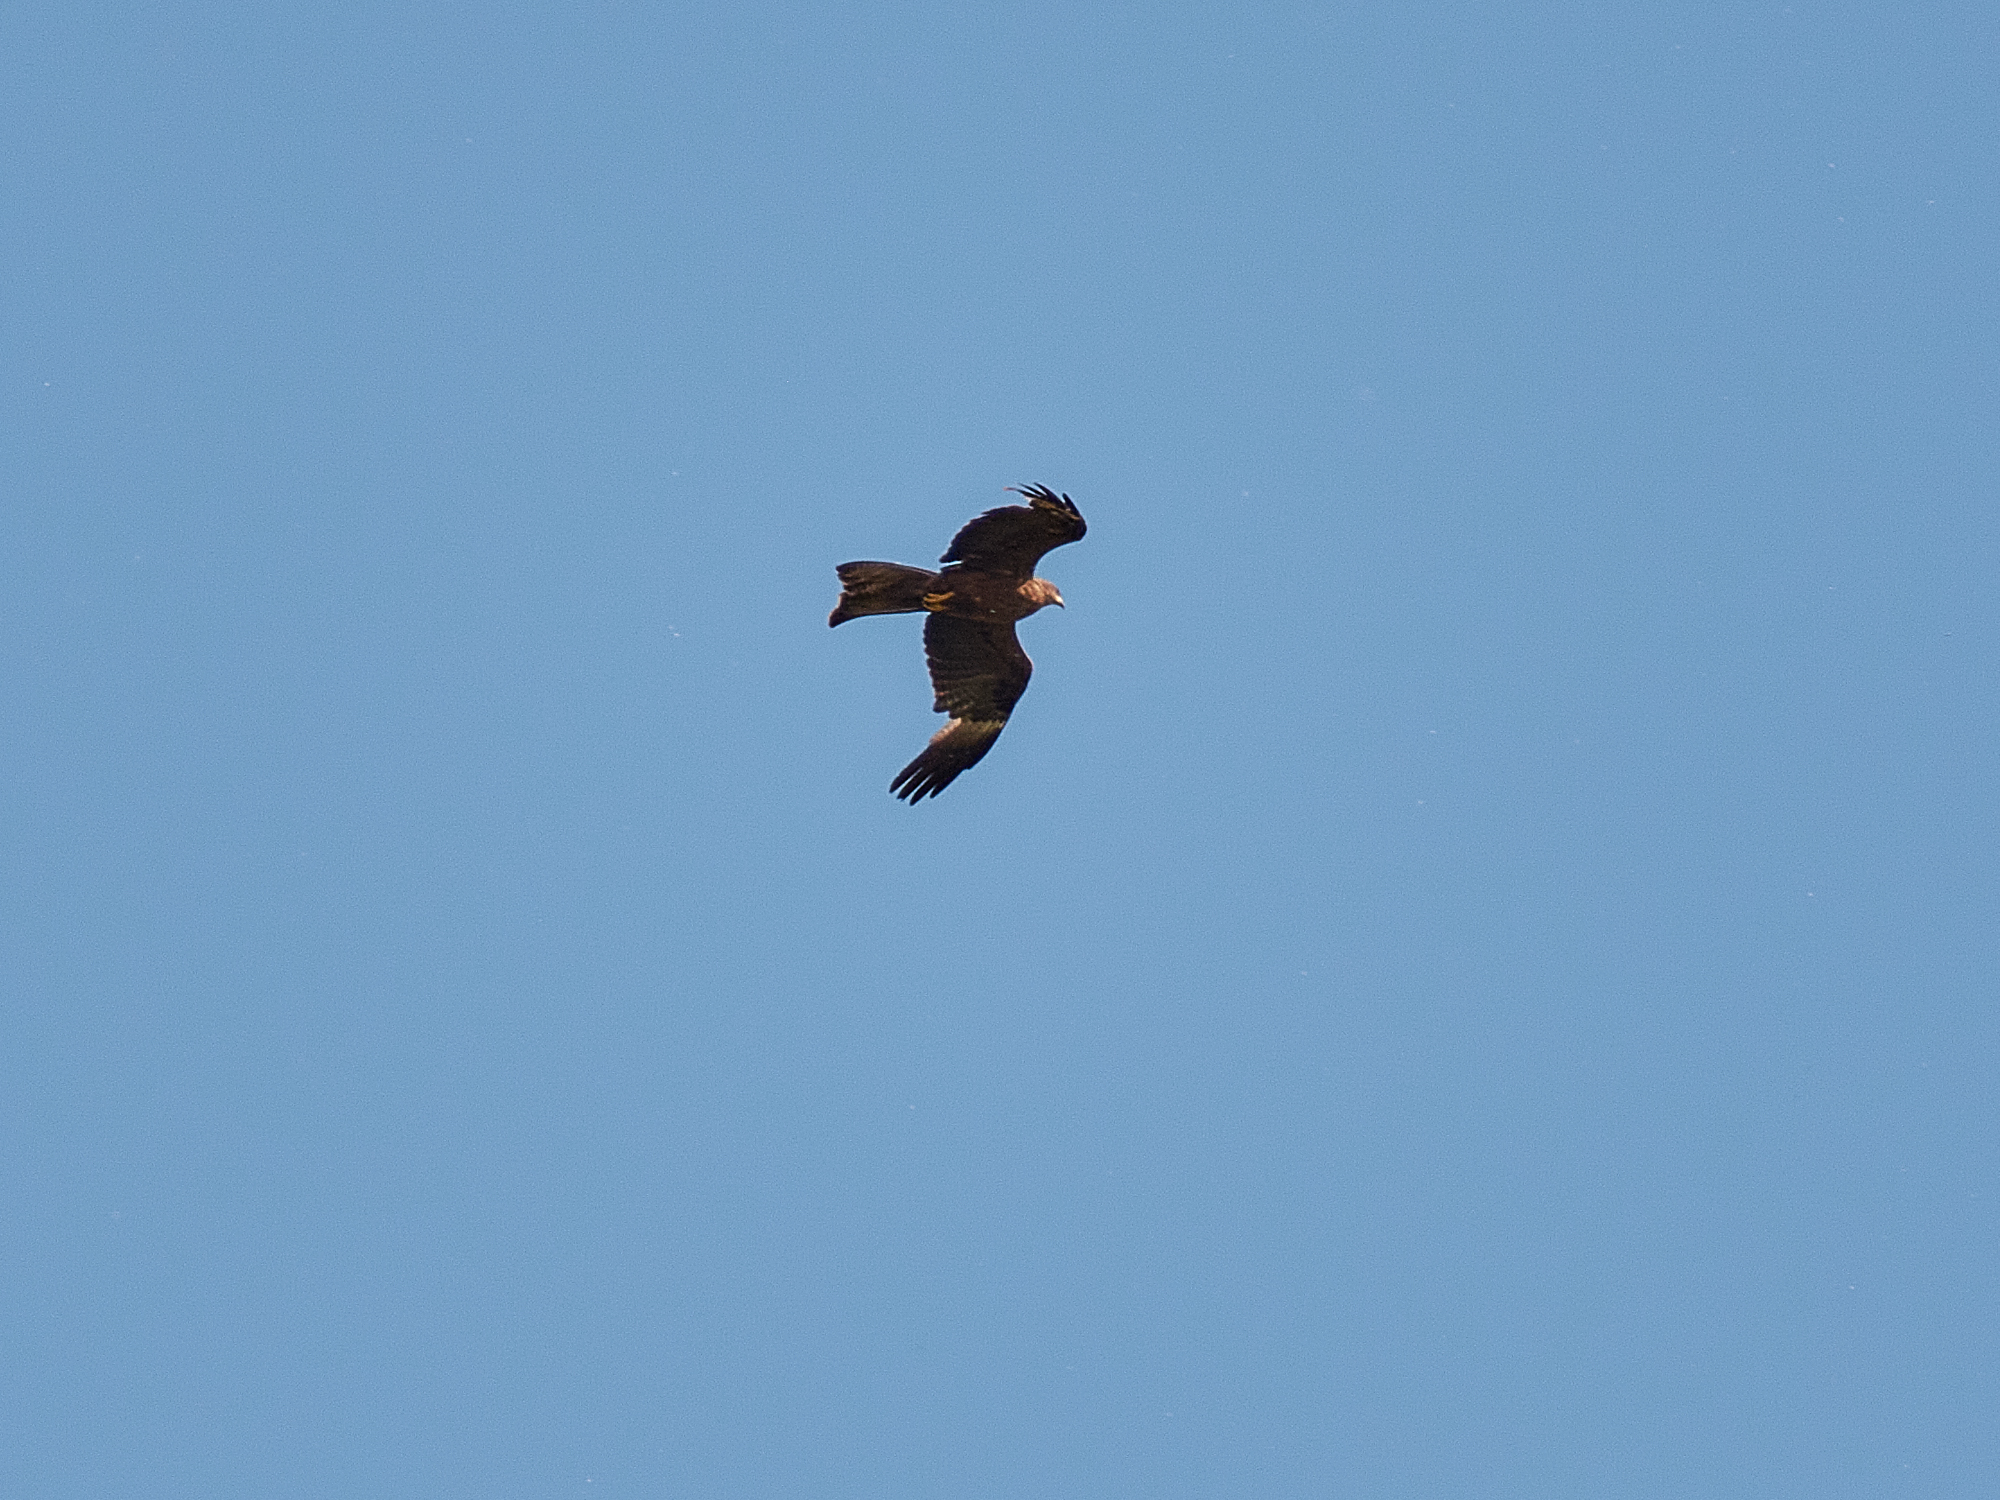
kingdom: Animalia
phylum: Chordata
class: Aves
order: Accipitriformes
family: Accipitridae
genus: Milvus
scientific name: Milvus migrans
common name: Black kite
